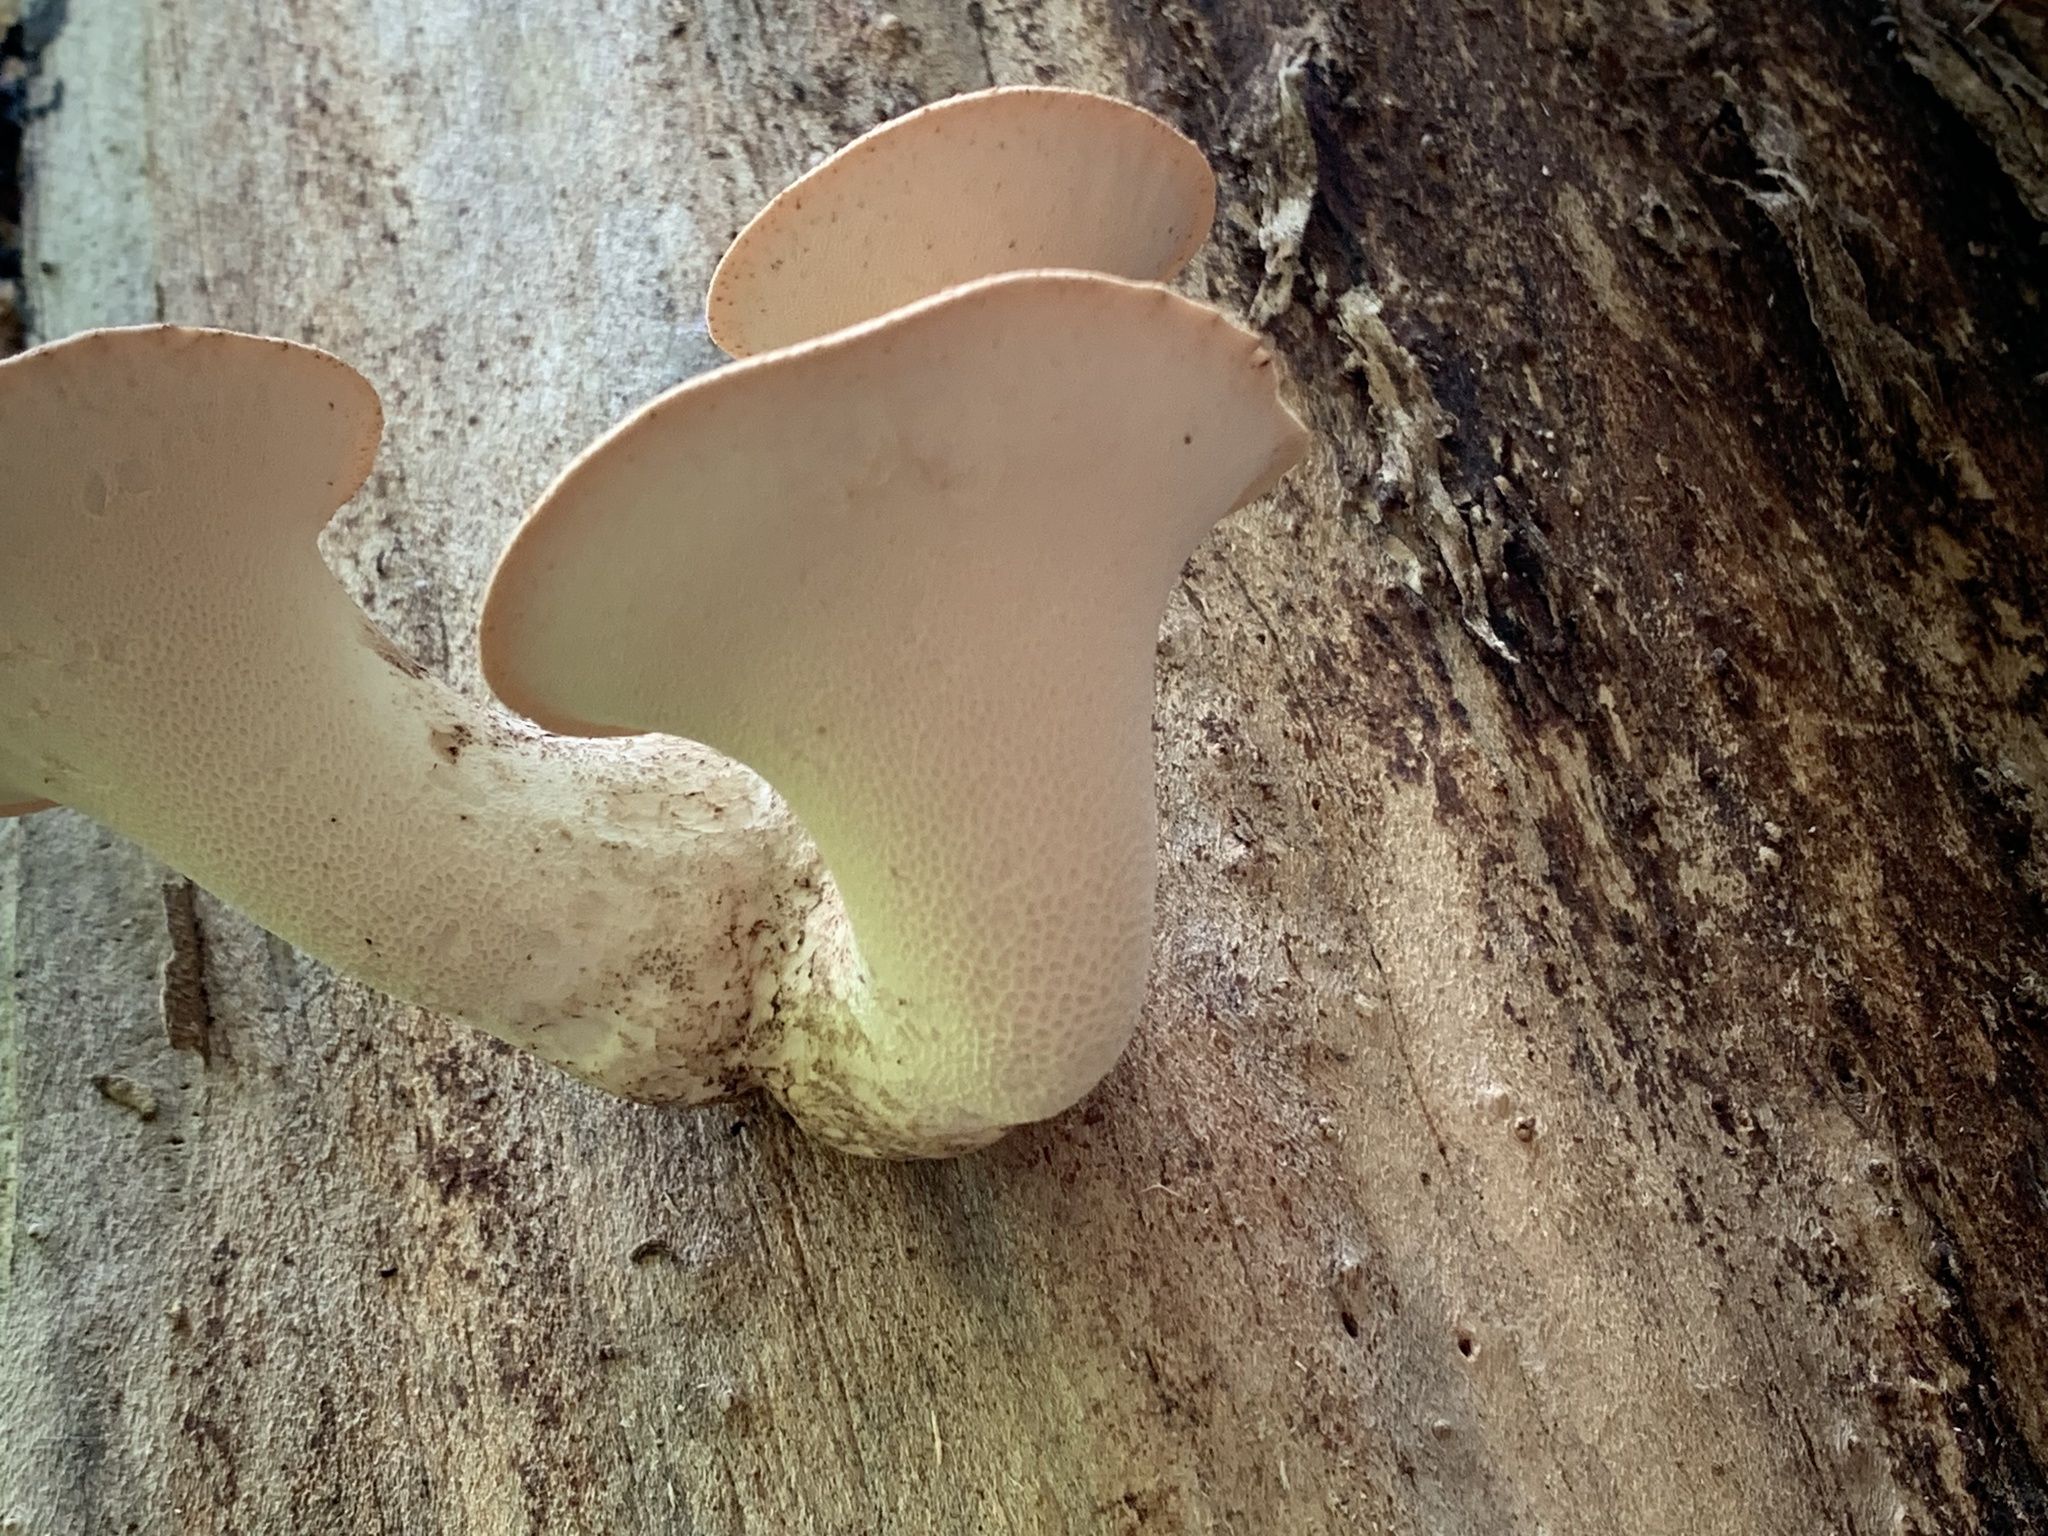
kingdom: Fungi
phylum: Basidiomycota
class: Agaricomycetes
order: Polyporales
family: Polyporaceae
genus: Cerioporus
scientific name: Cerioporus squamosus
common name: Dryad's saddle
